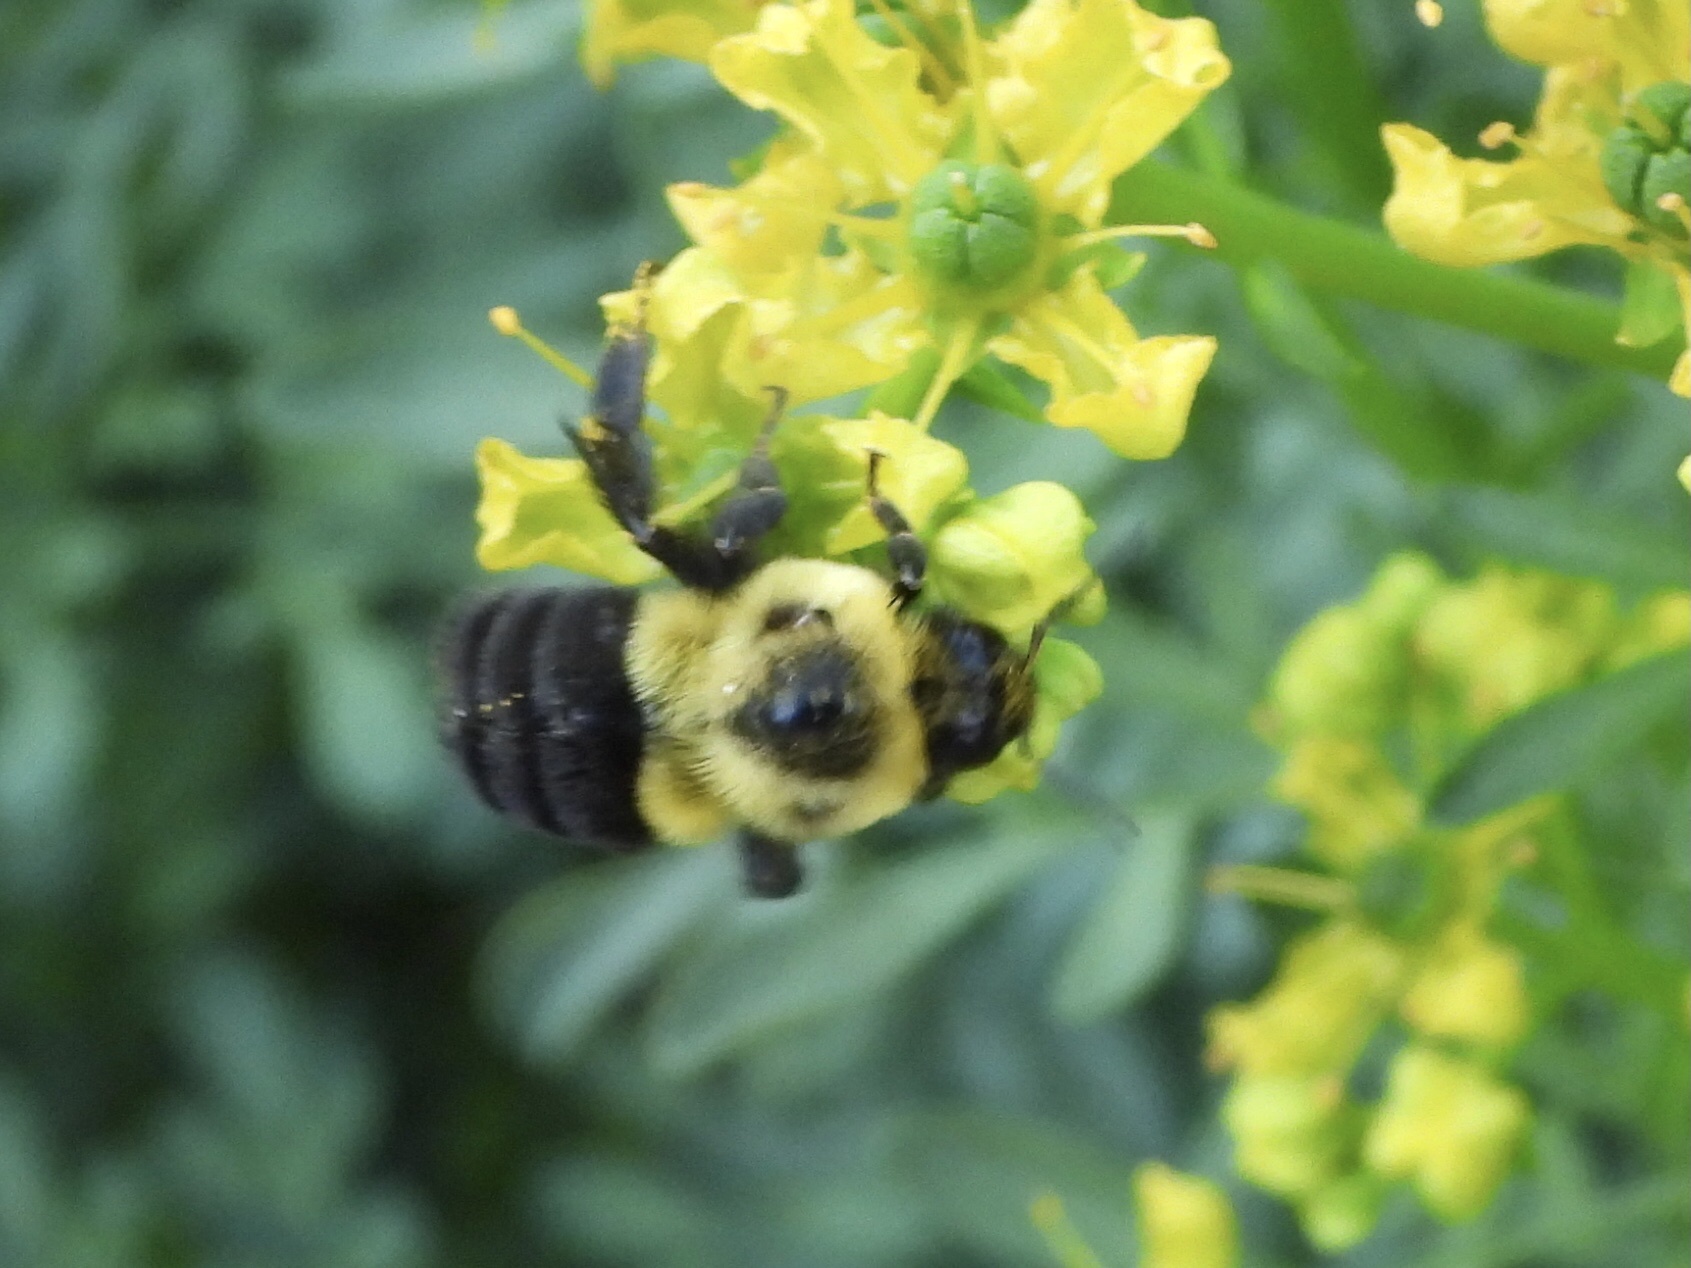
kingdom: Animalia
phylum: Arthropoda
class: Insecta
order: Hymenoptera
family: Apidae
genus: Bombus
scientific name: Bombus impatiens
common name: Common eastern bumble bee
